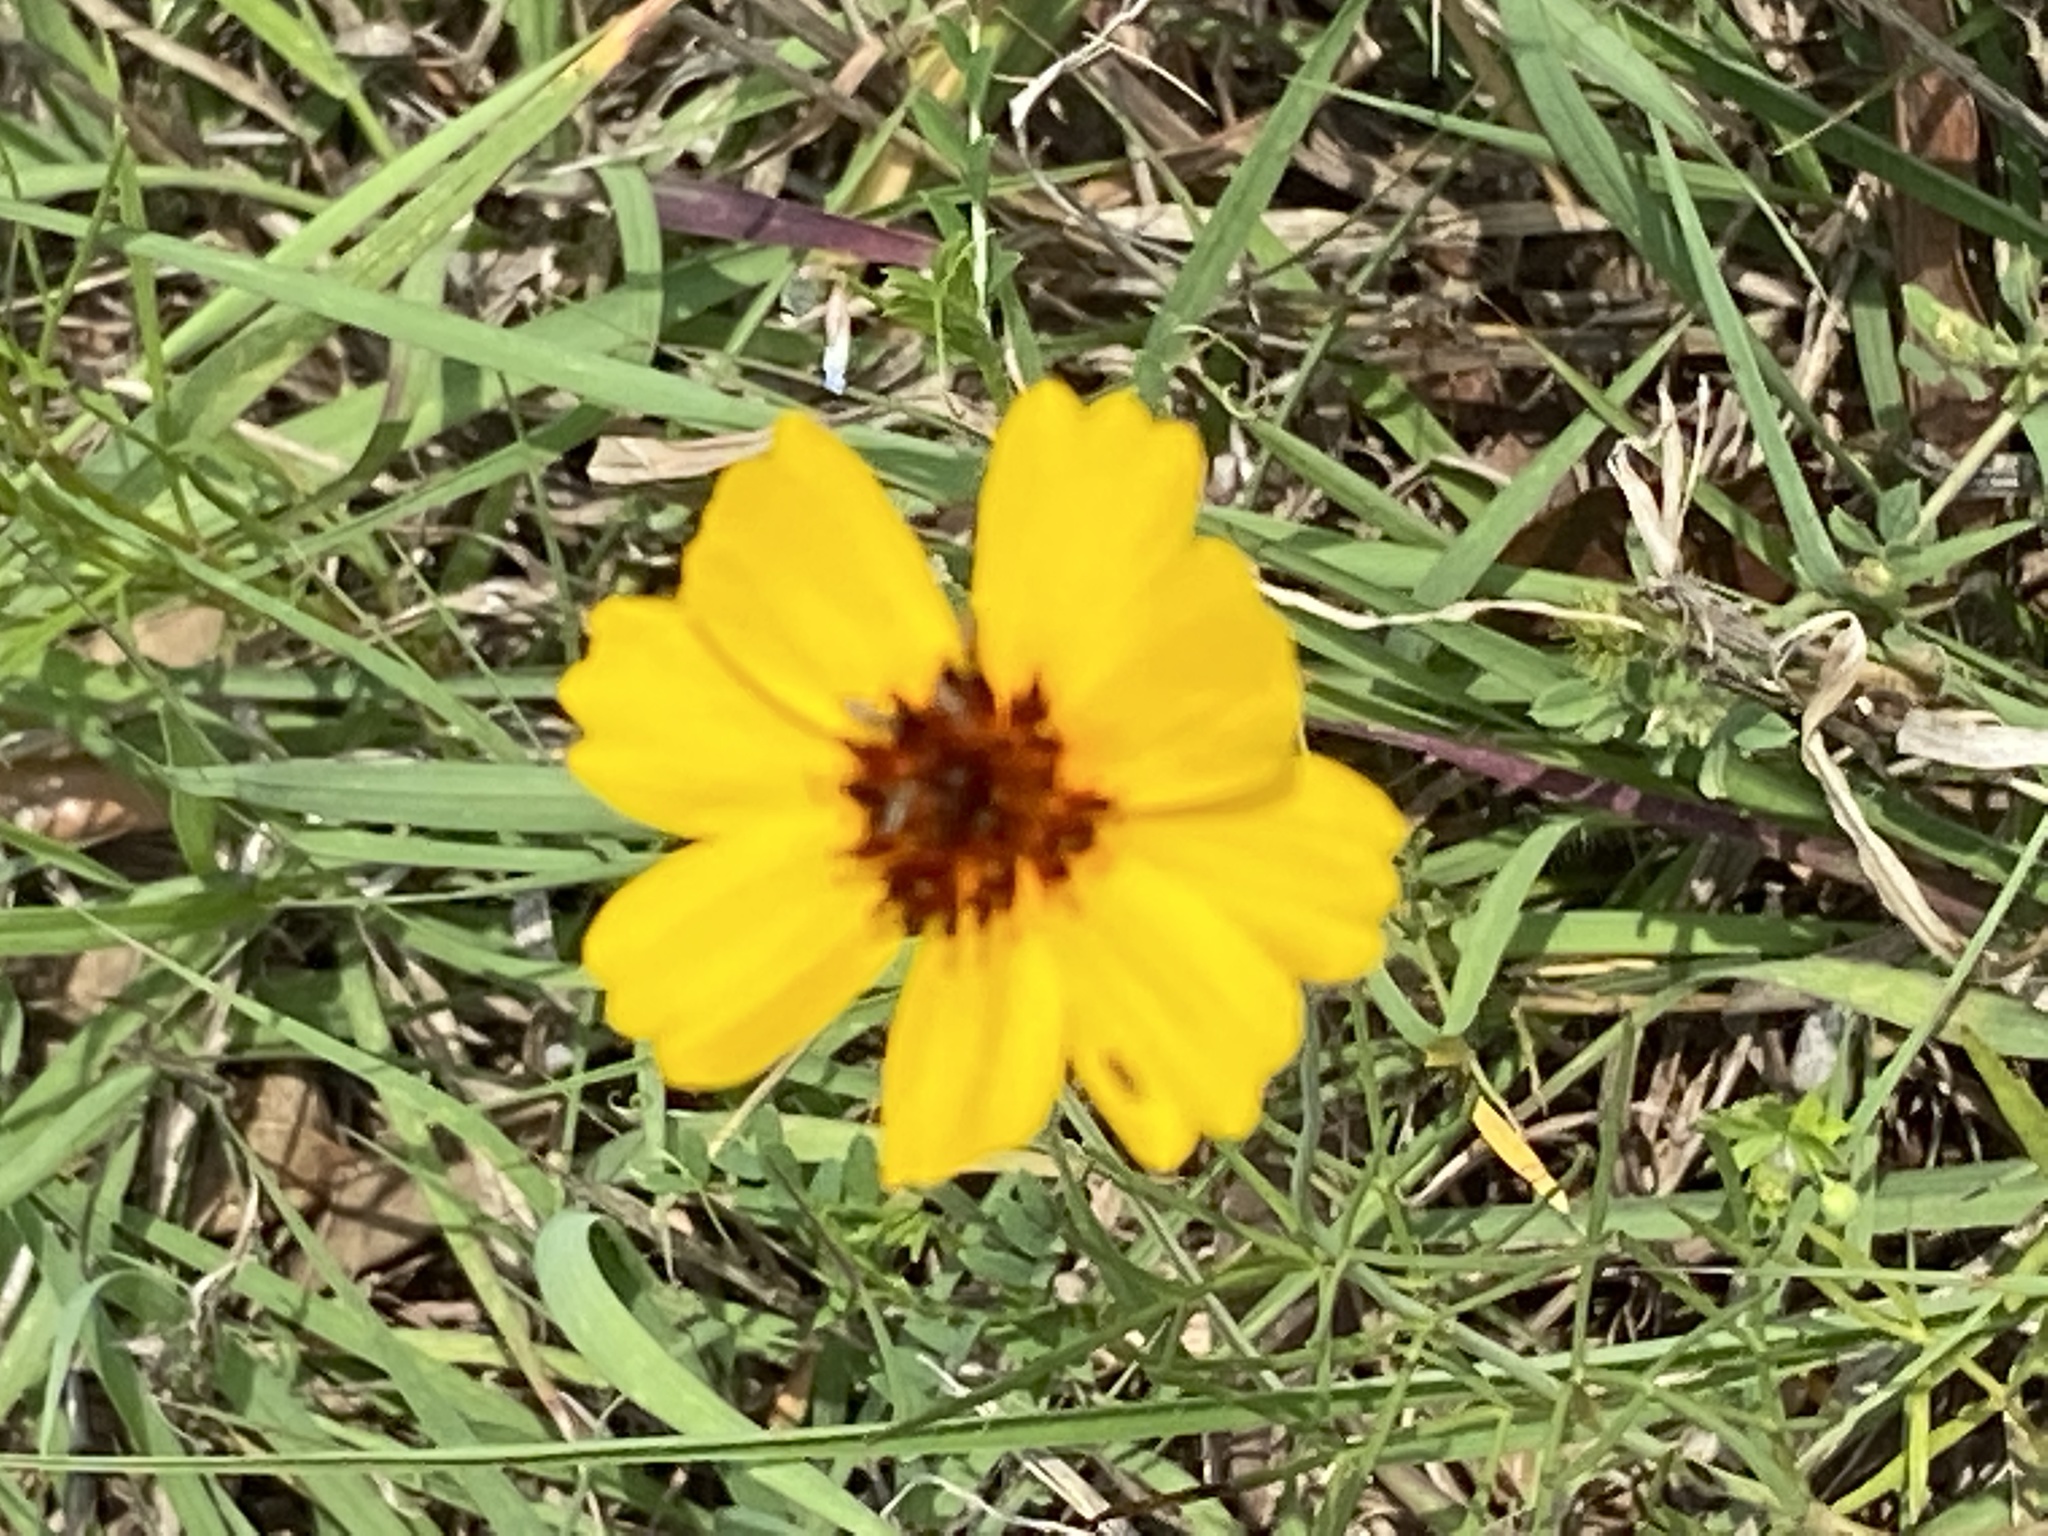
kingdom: Plantae
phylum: Tracheophyta
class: Magnoliopsida
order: Asterales
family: Asteraceae
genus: Thelesperma
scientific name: Thelesperma filifolium
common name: Stiff greenthread
